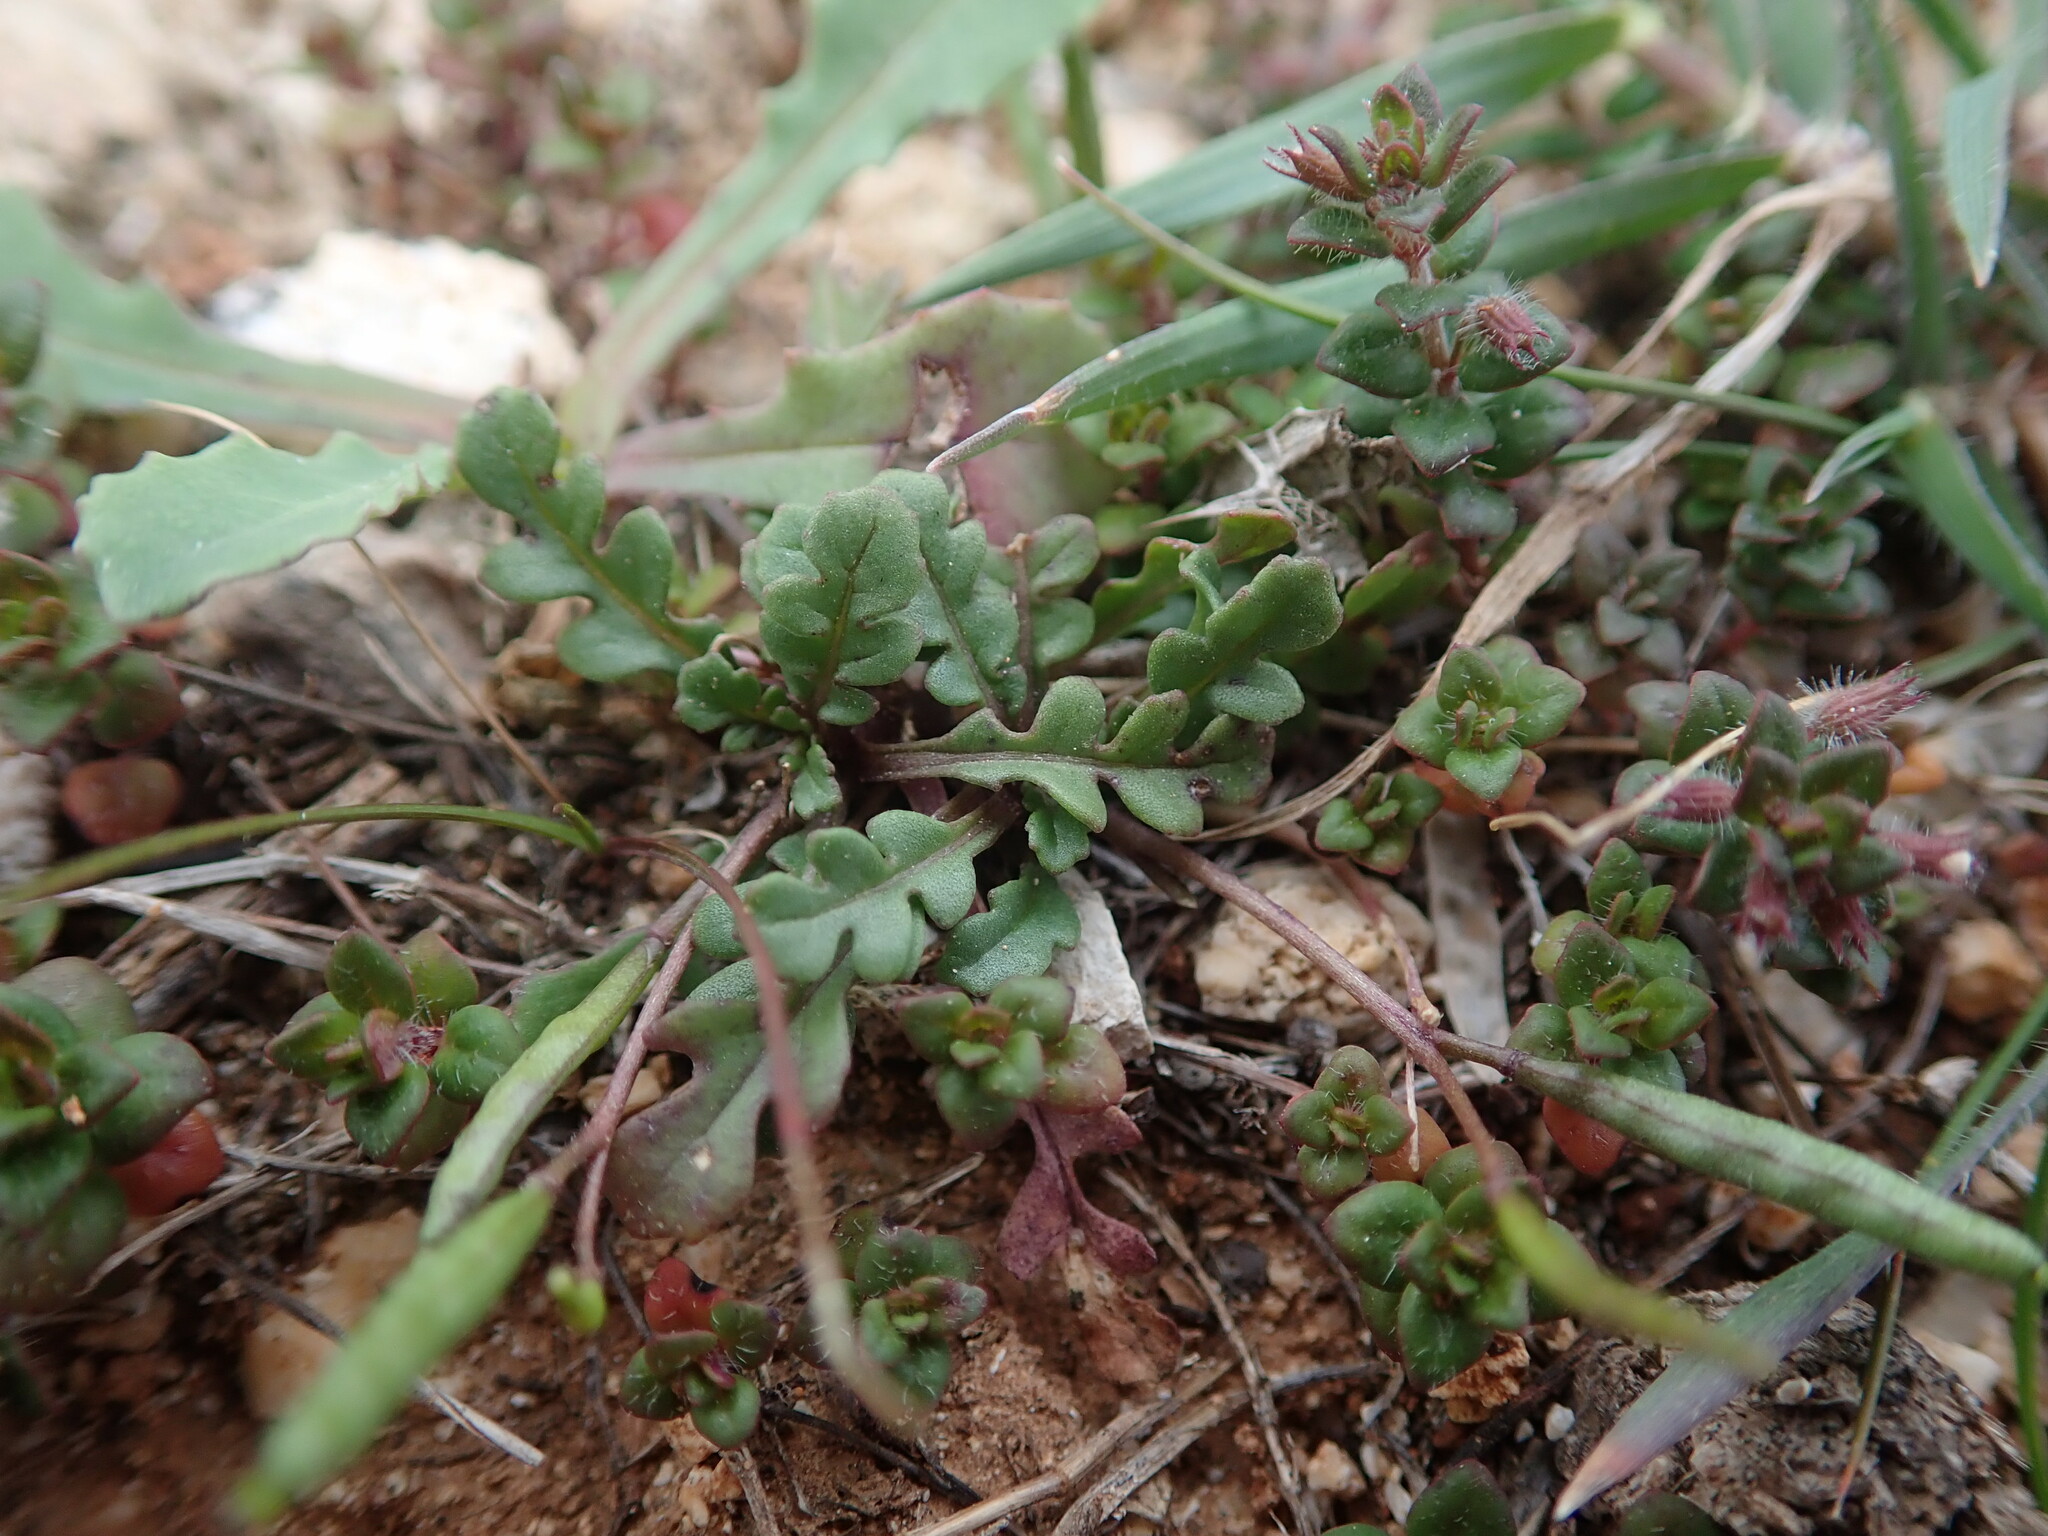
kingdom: Plantae
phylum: Tracheophyta
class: Magnoliopsida
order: Brassicales
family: Brassicaceae
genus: Diplotaxis
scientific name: Diplotaxis viminea
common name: Vineyard wall rocket
